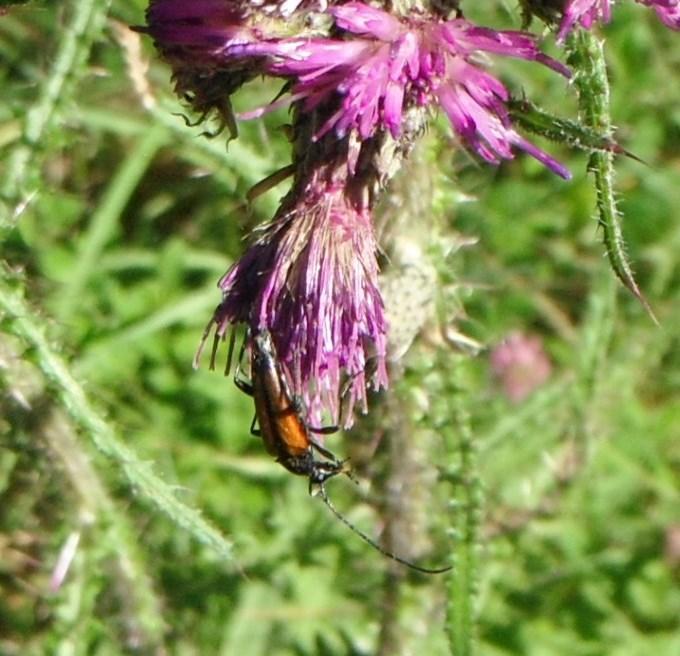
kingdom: Animalia
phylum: Arthropoda
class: Insecta
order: Coleoptera
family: Cerambycidae
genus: Stenurella
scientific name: Stenurella melanura
